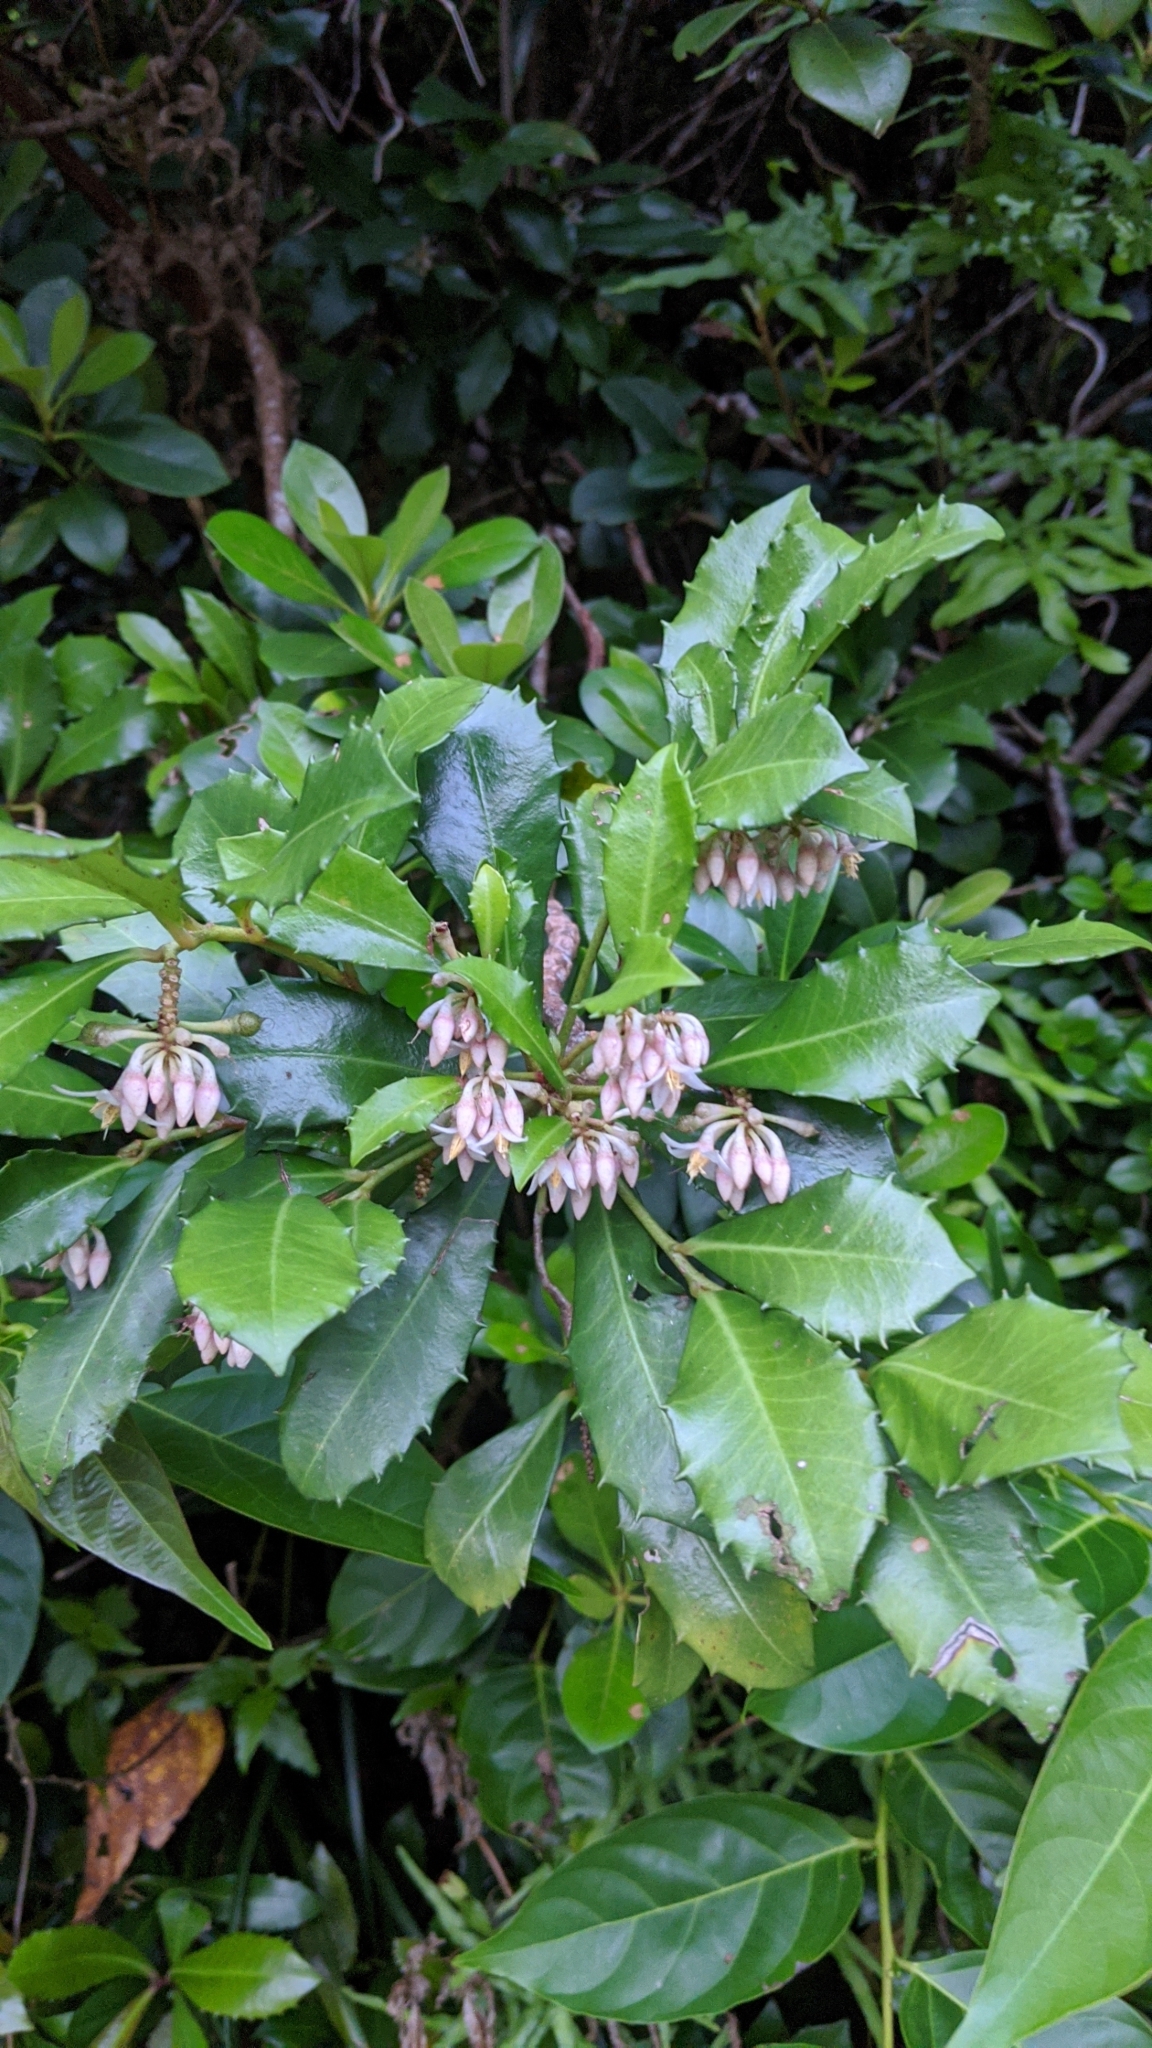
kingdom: Plantae
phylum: Tracheophyta
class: Magnoliopsida
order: Ericales
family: Primulaceae
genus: Ardisia
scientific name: Ardisia cornudentata
